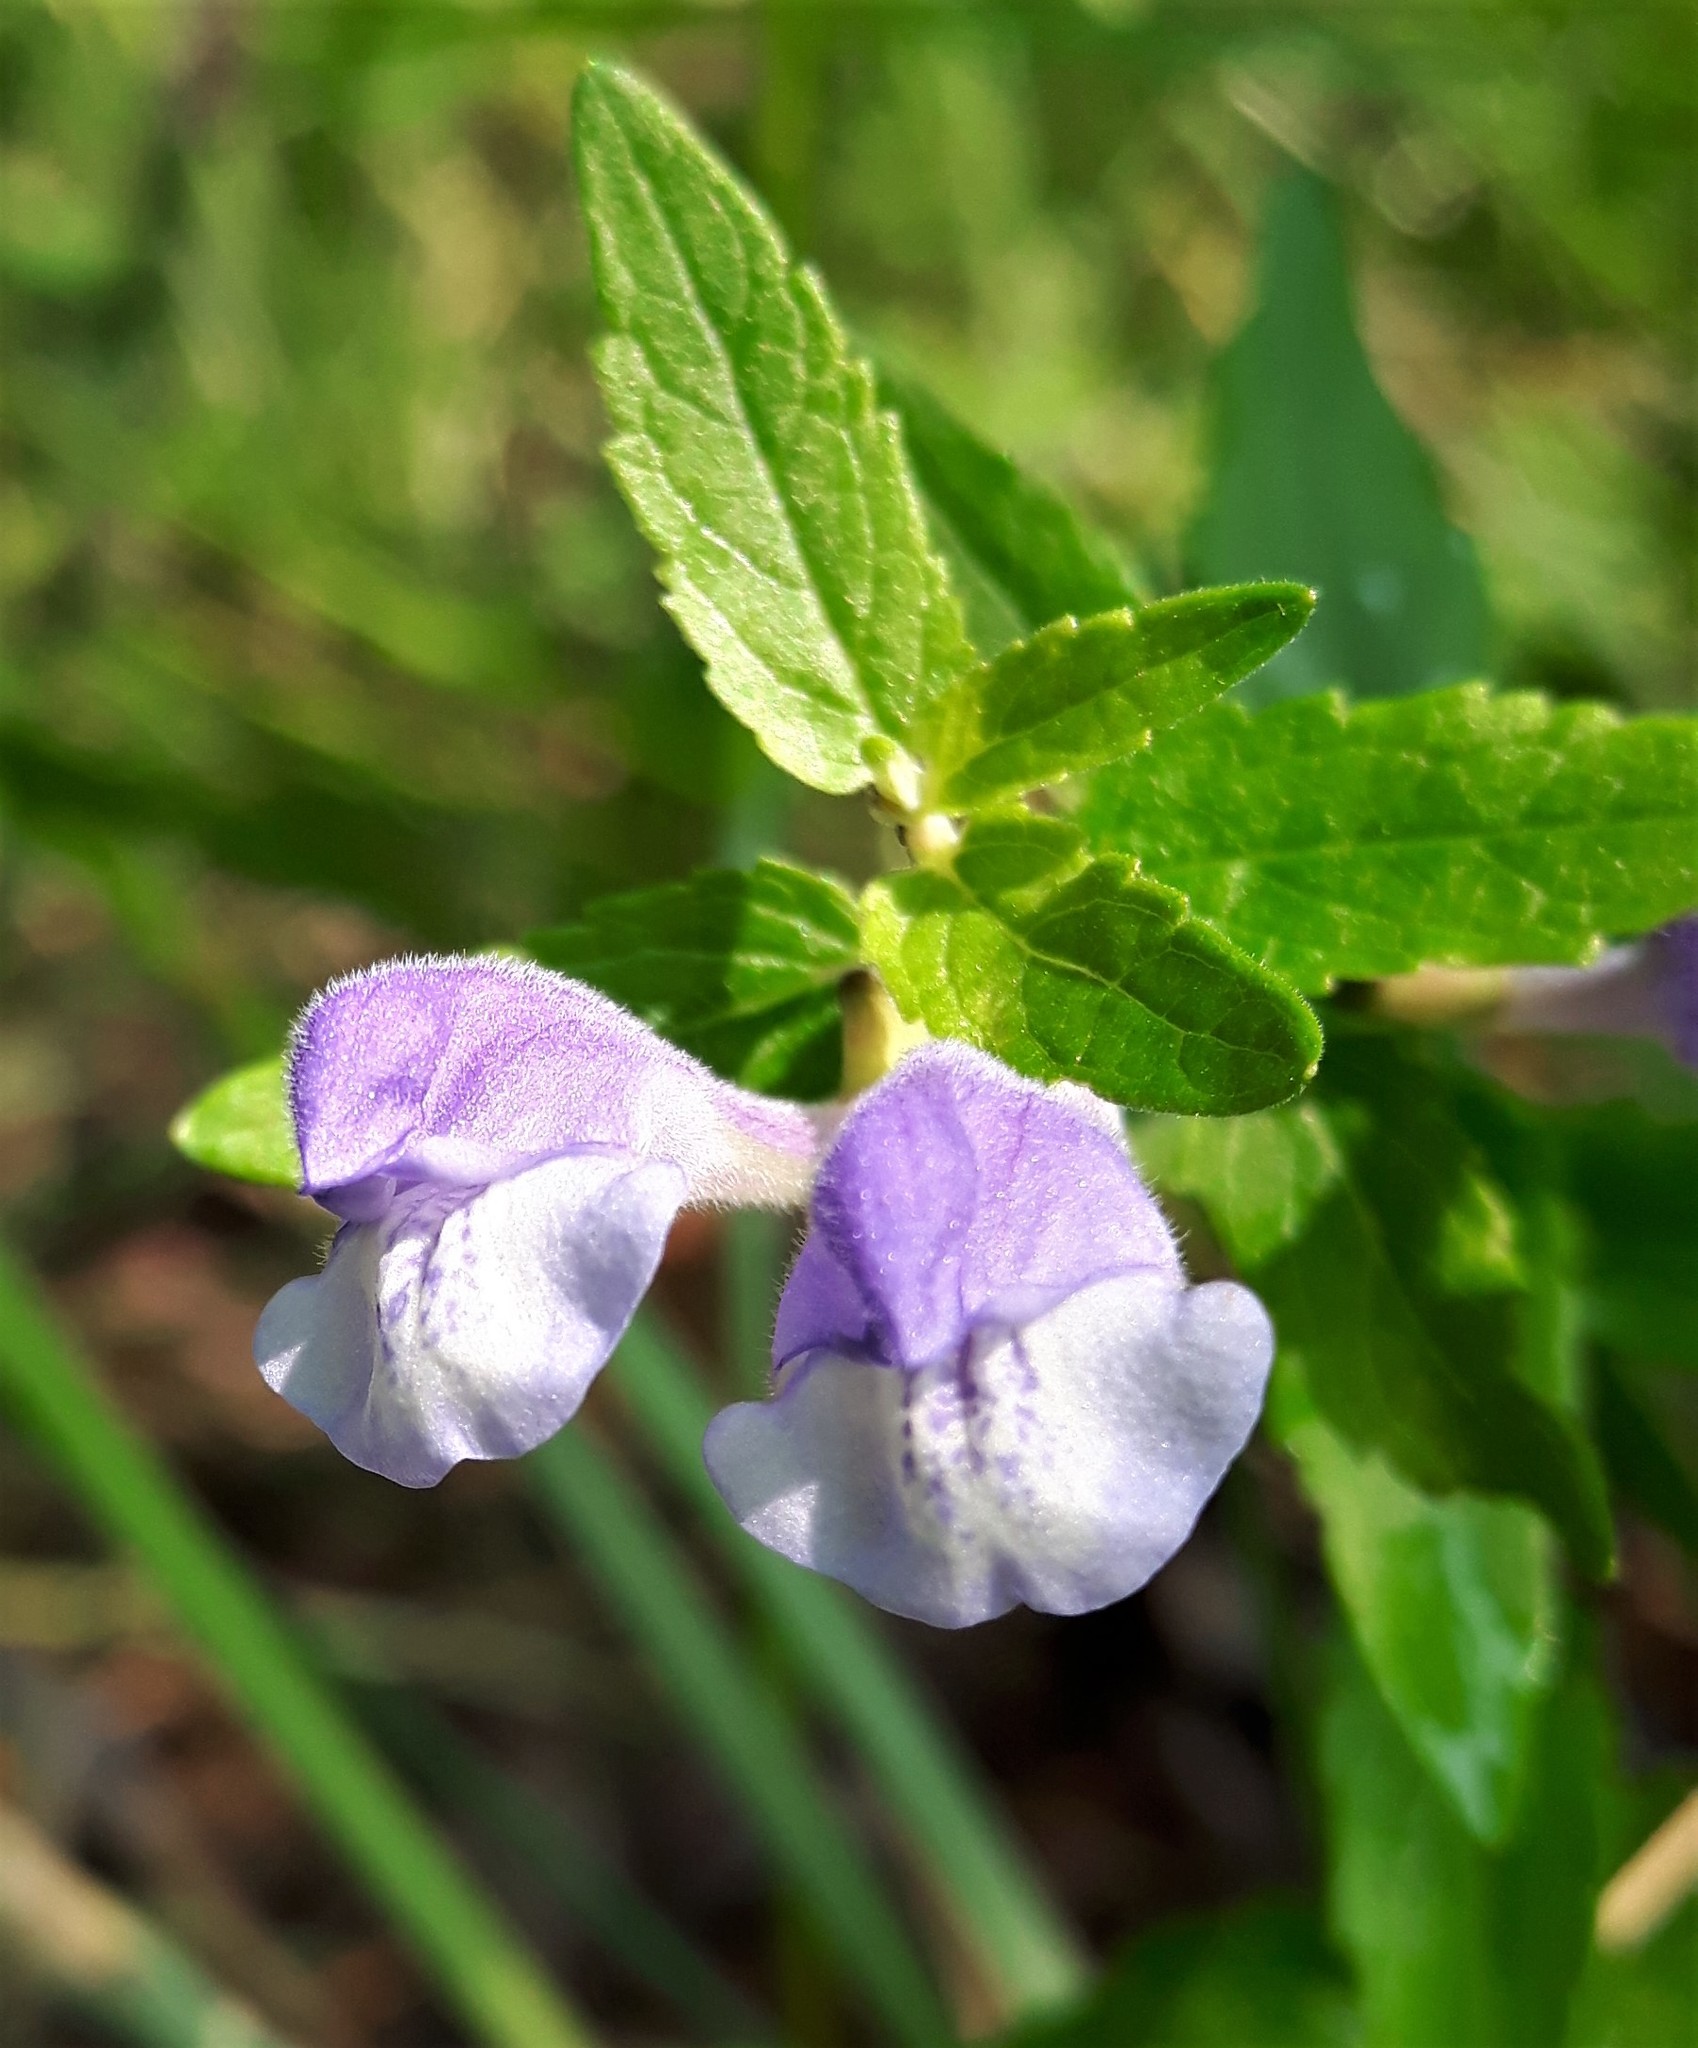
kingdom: Plantae
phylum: Tracheophyta
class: Magnoliopsida
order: Lamiales
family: Lamiaceae
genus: Scutellaria
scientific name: Scutellaria galericulata
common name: Skullcap
